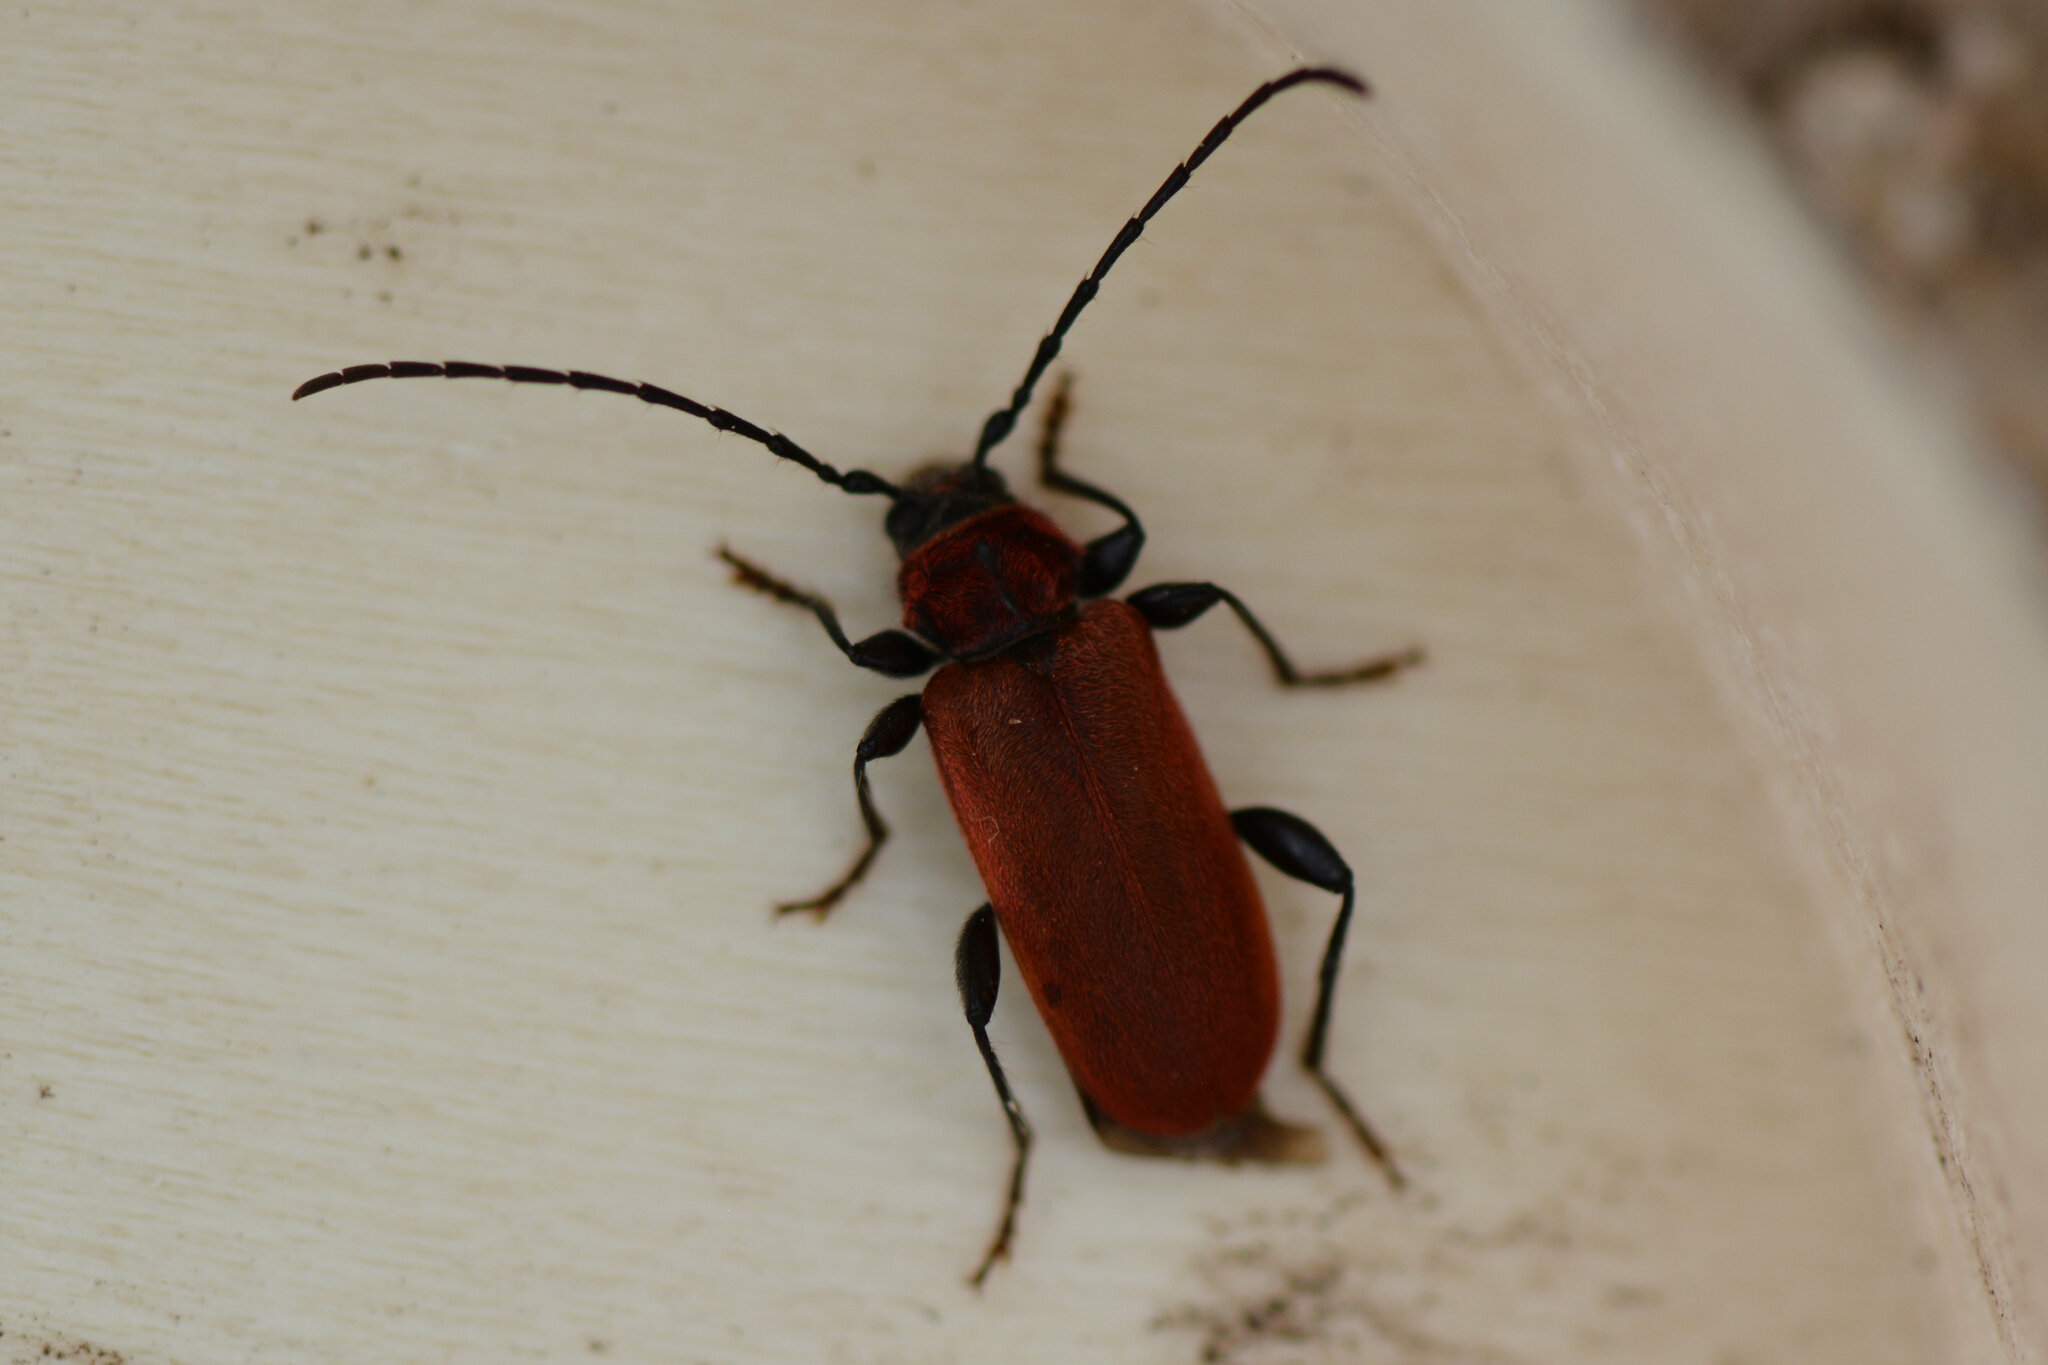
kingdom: Animalia
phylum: Arthropoda
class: Insecta
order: Coleoptera
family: Cerambycidae
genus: Pyrrhidium
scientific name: Pyrrhidium sanguineum
